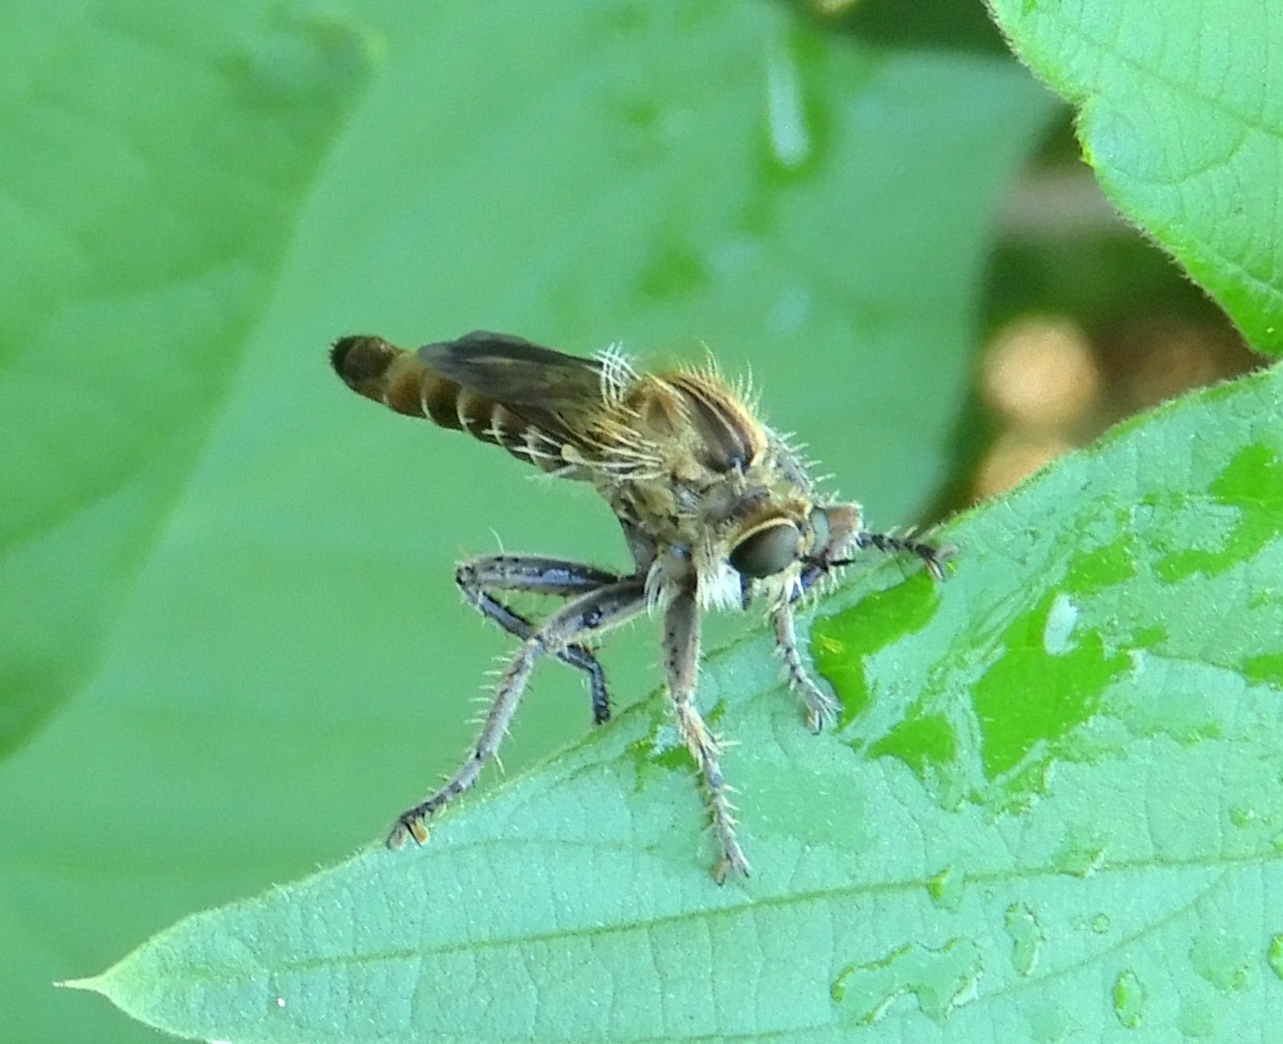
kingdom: Animalia
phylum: Arthropoda
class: Insecta
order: Diptera
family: Asilidae
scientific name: Asilidae
